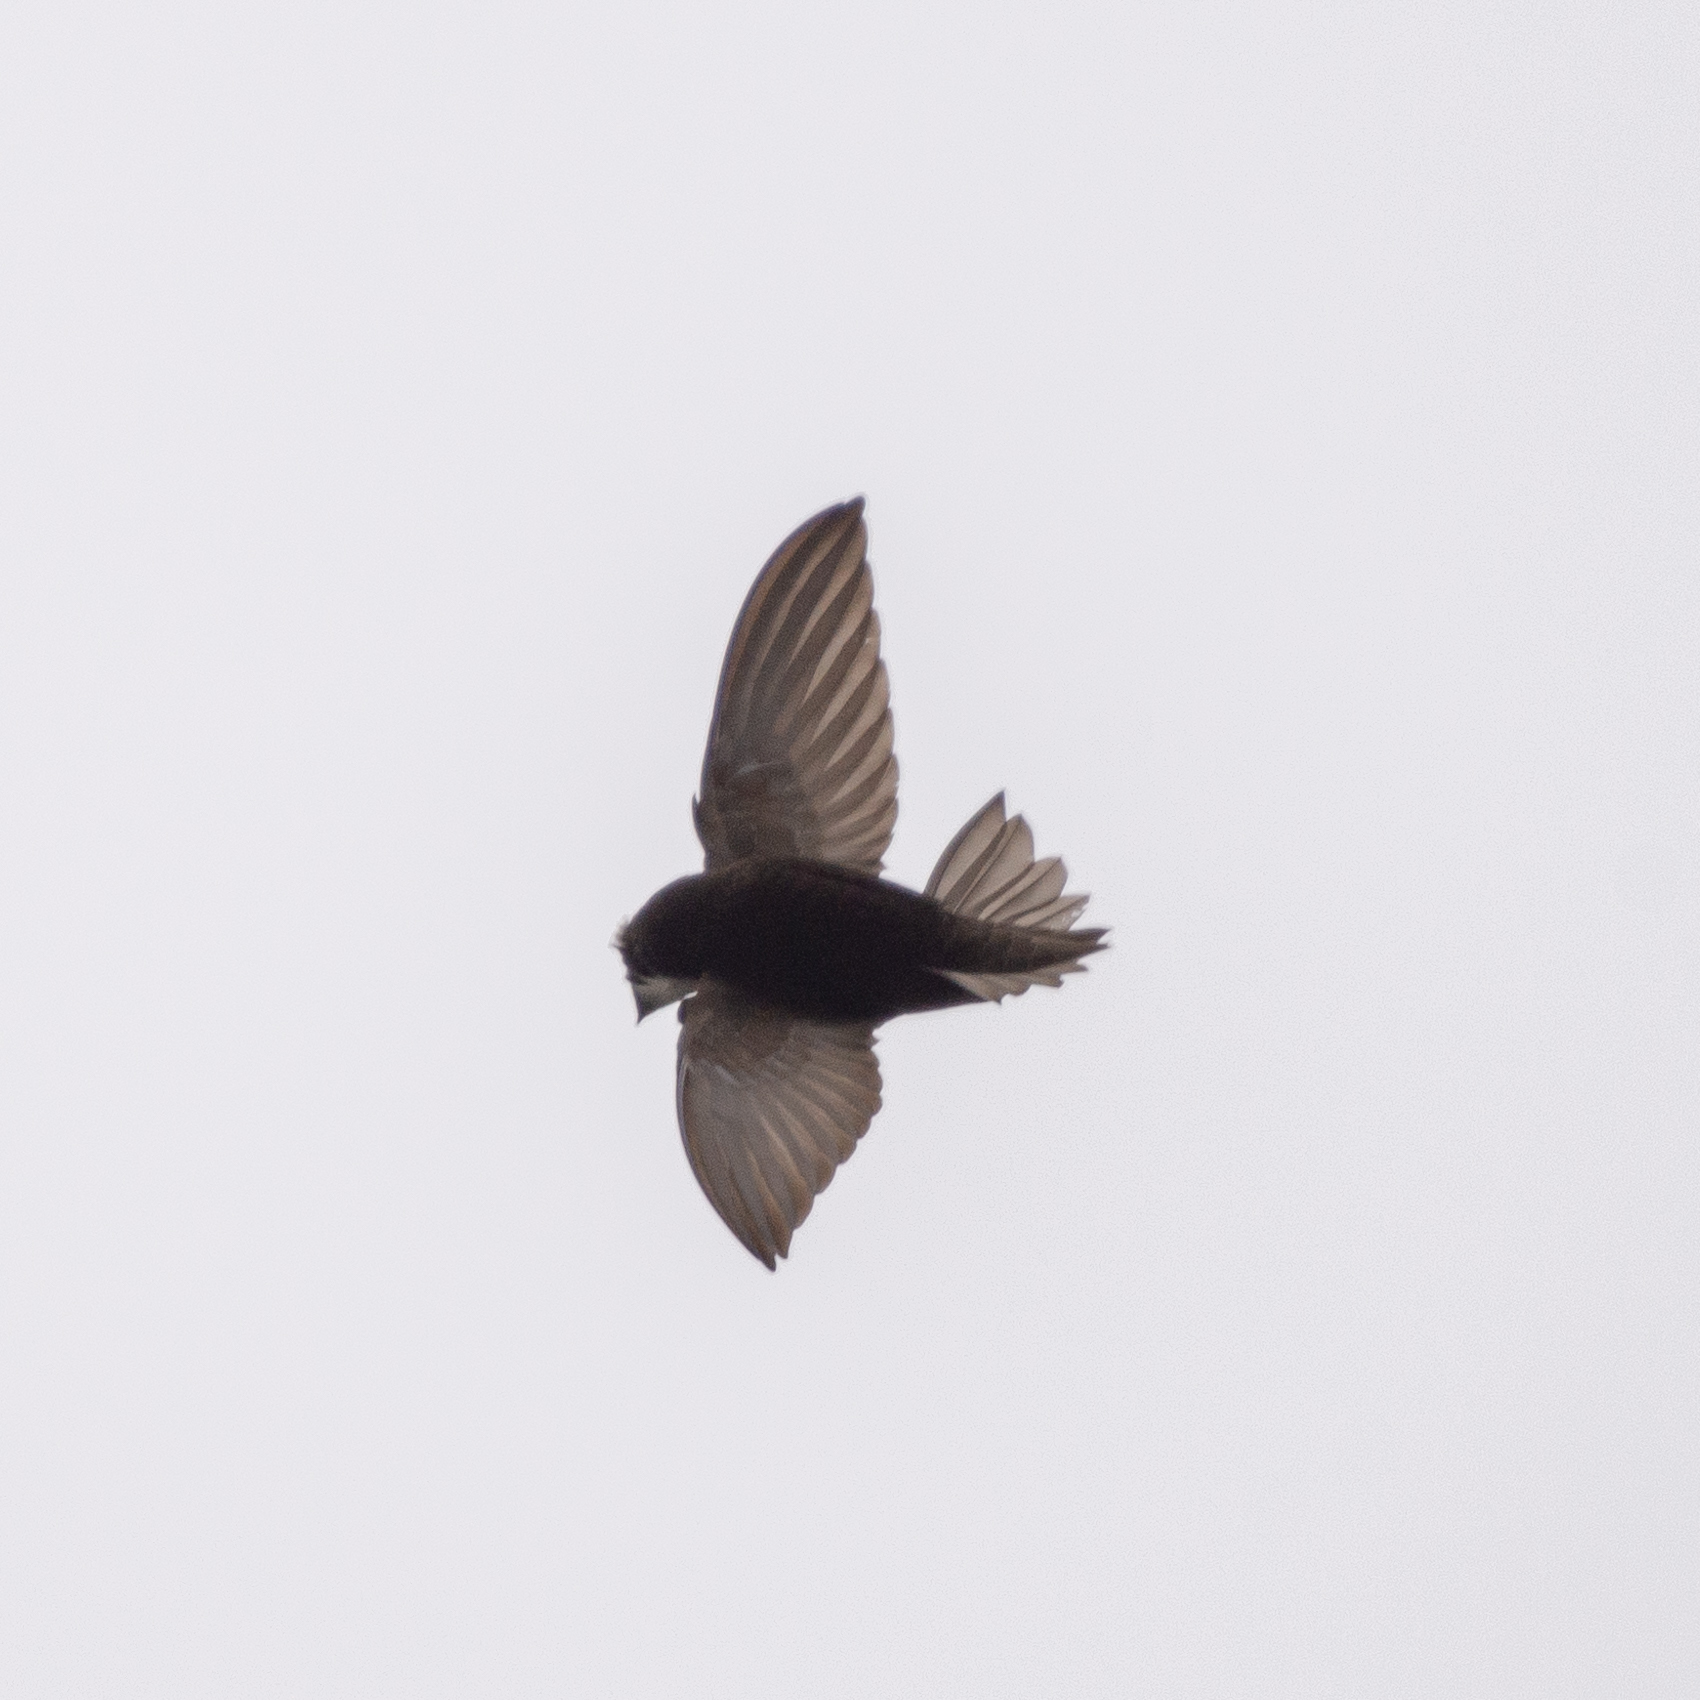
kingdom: Animalia
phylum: Chordata
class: Aves
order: Apodiformes
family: Apodidae
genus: Apus
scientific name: Apus apus
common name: Common swift
